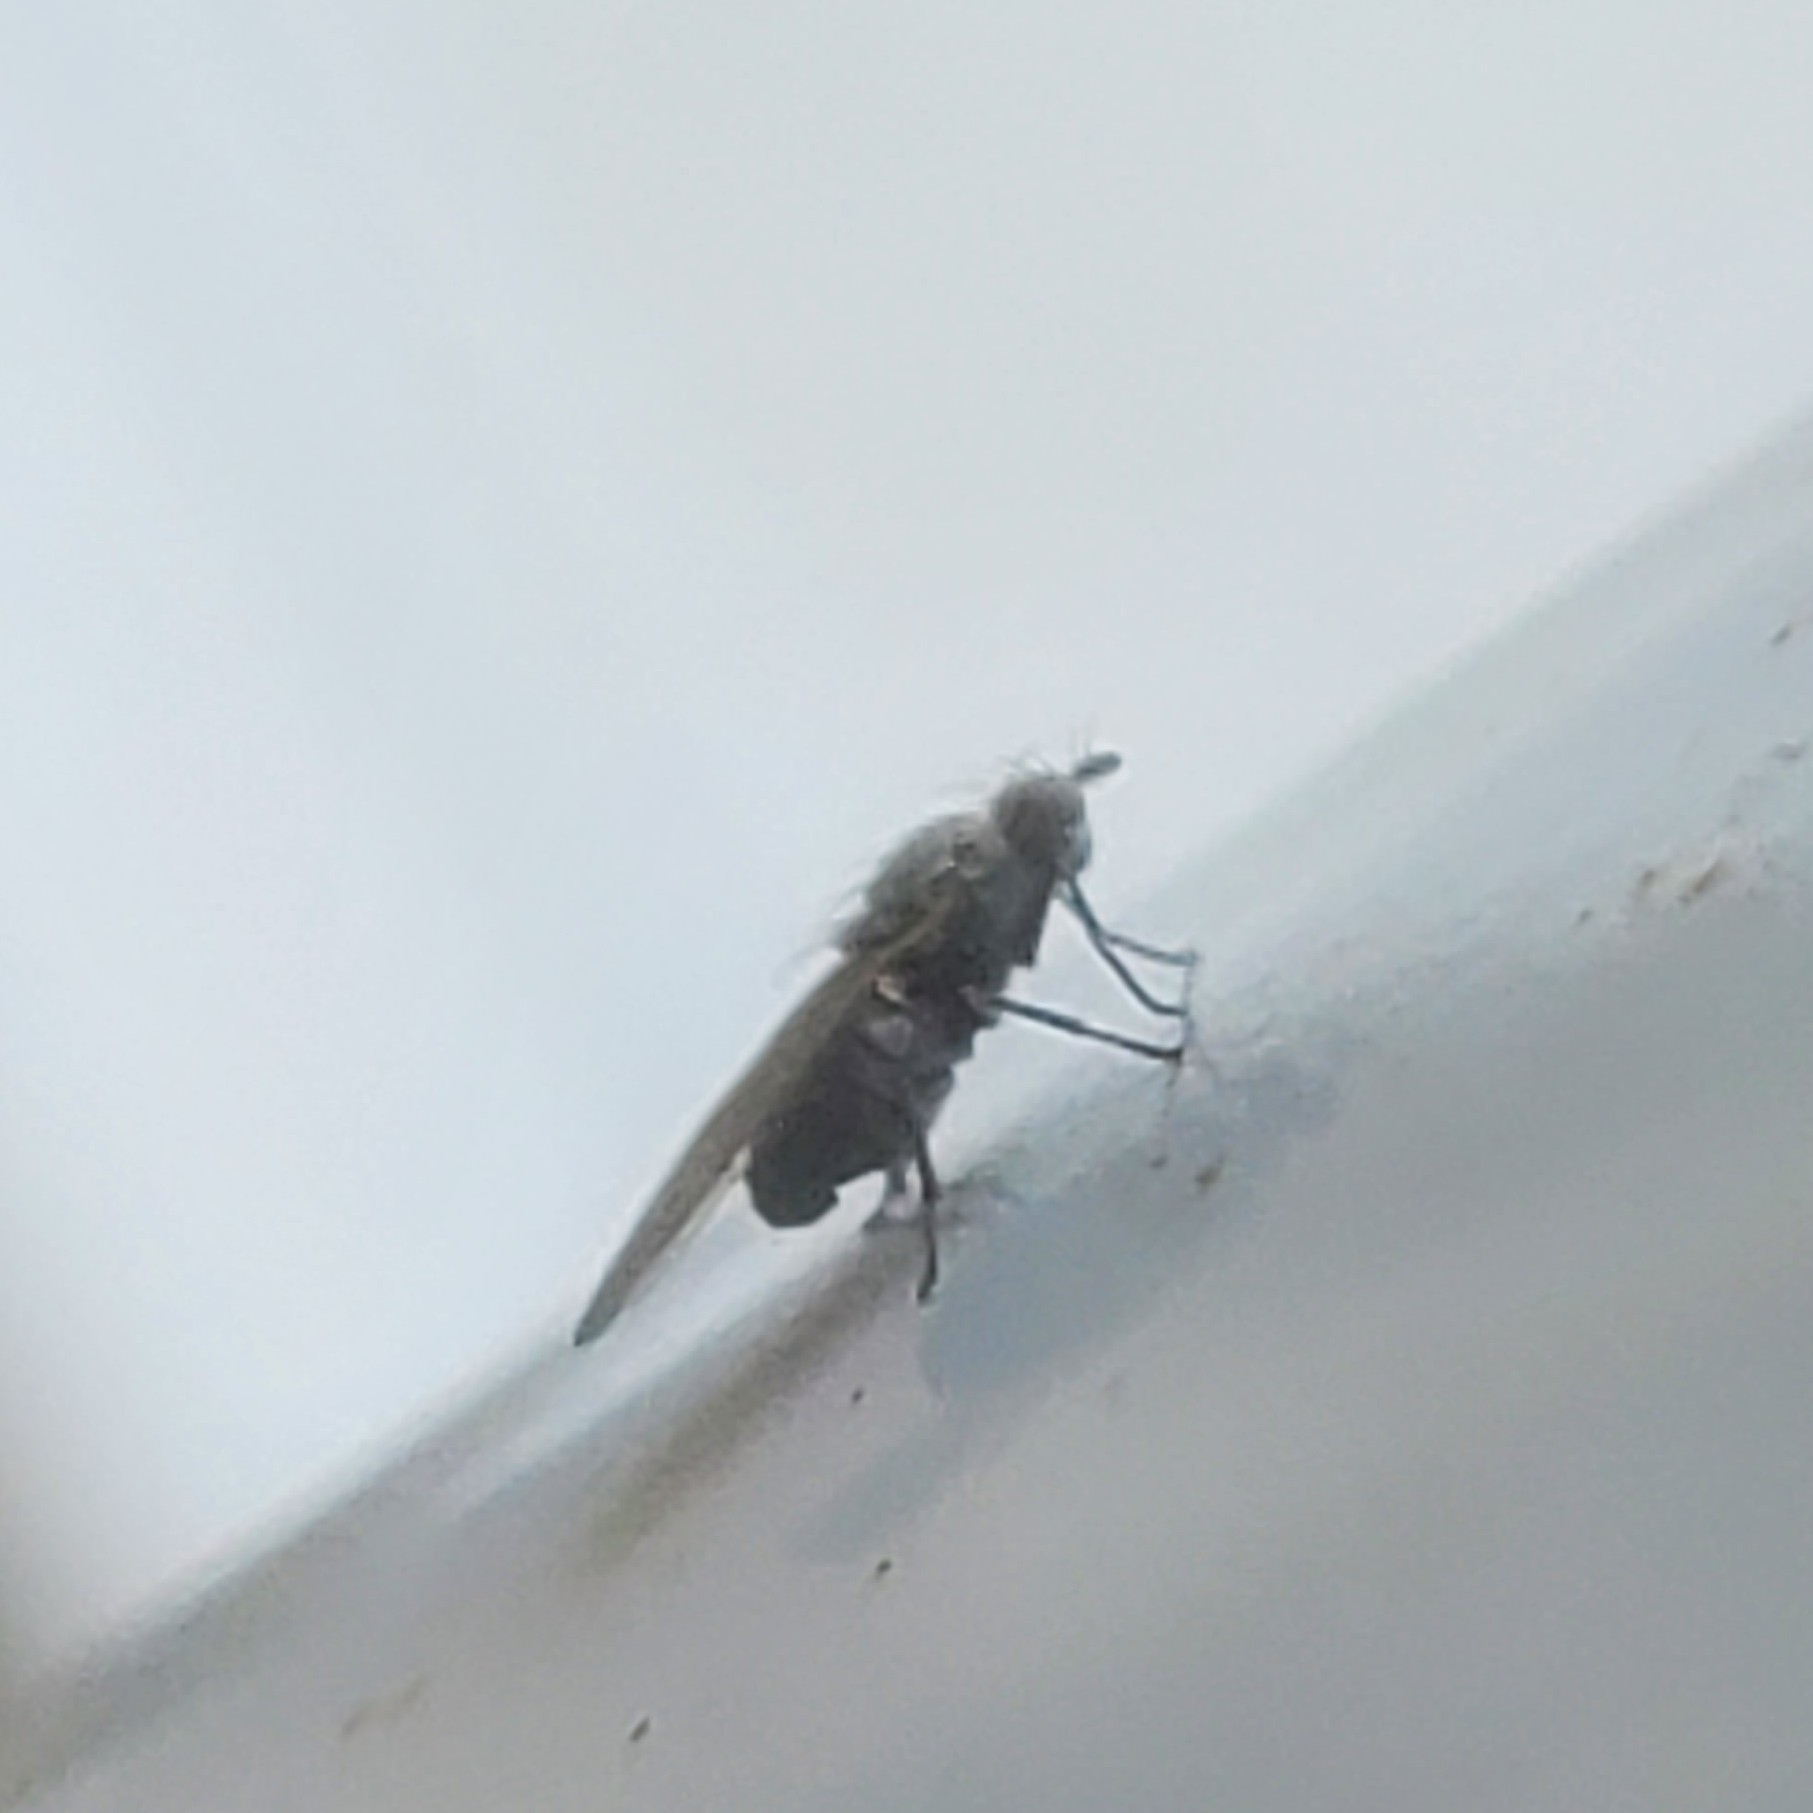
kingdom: Animalia
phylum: Arthropoda
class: Insecta
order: Diptera
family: Lauxaniidae
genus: Sapromyza
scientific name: Sapromyza brachysoma
